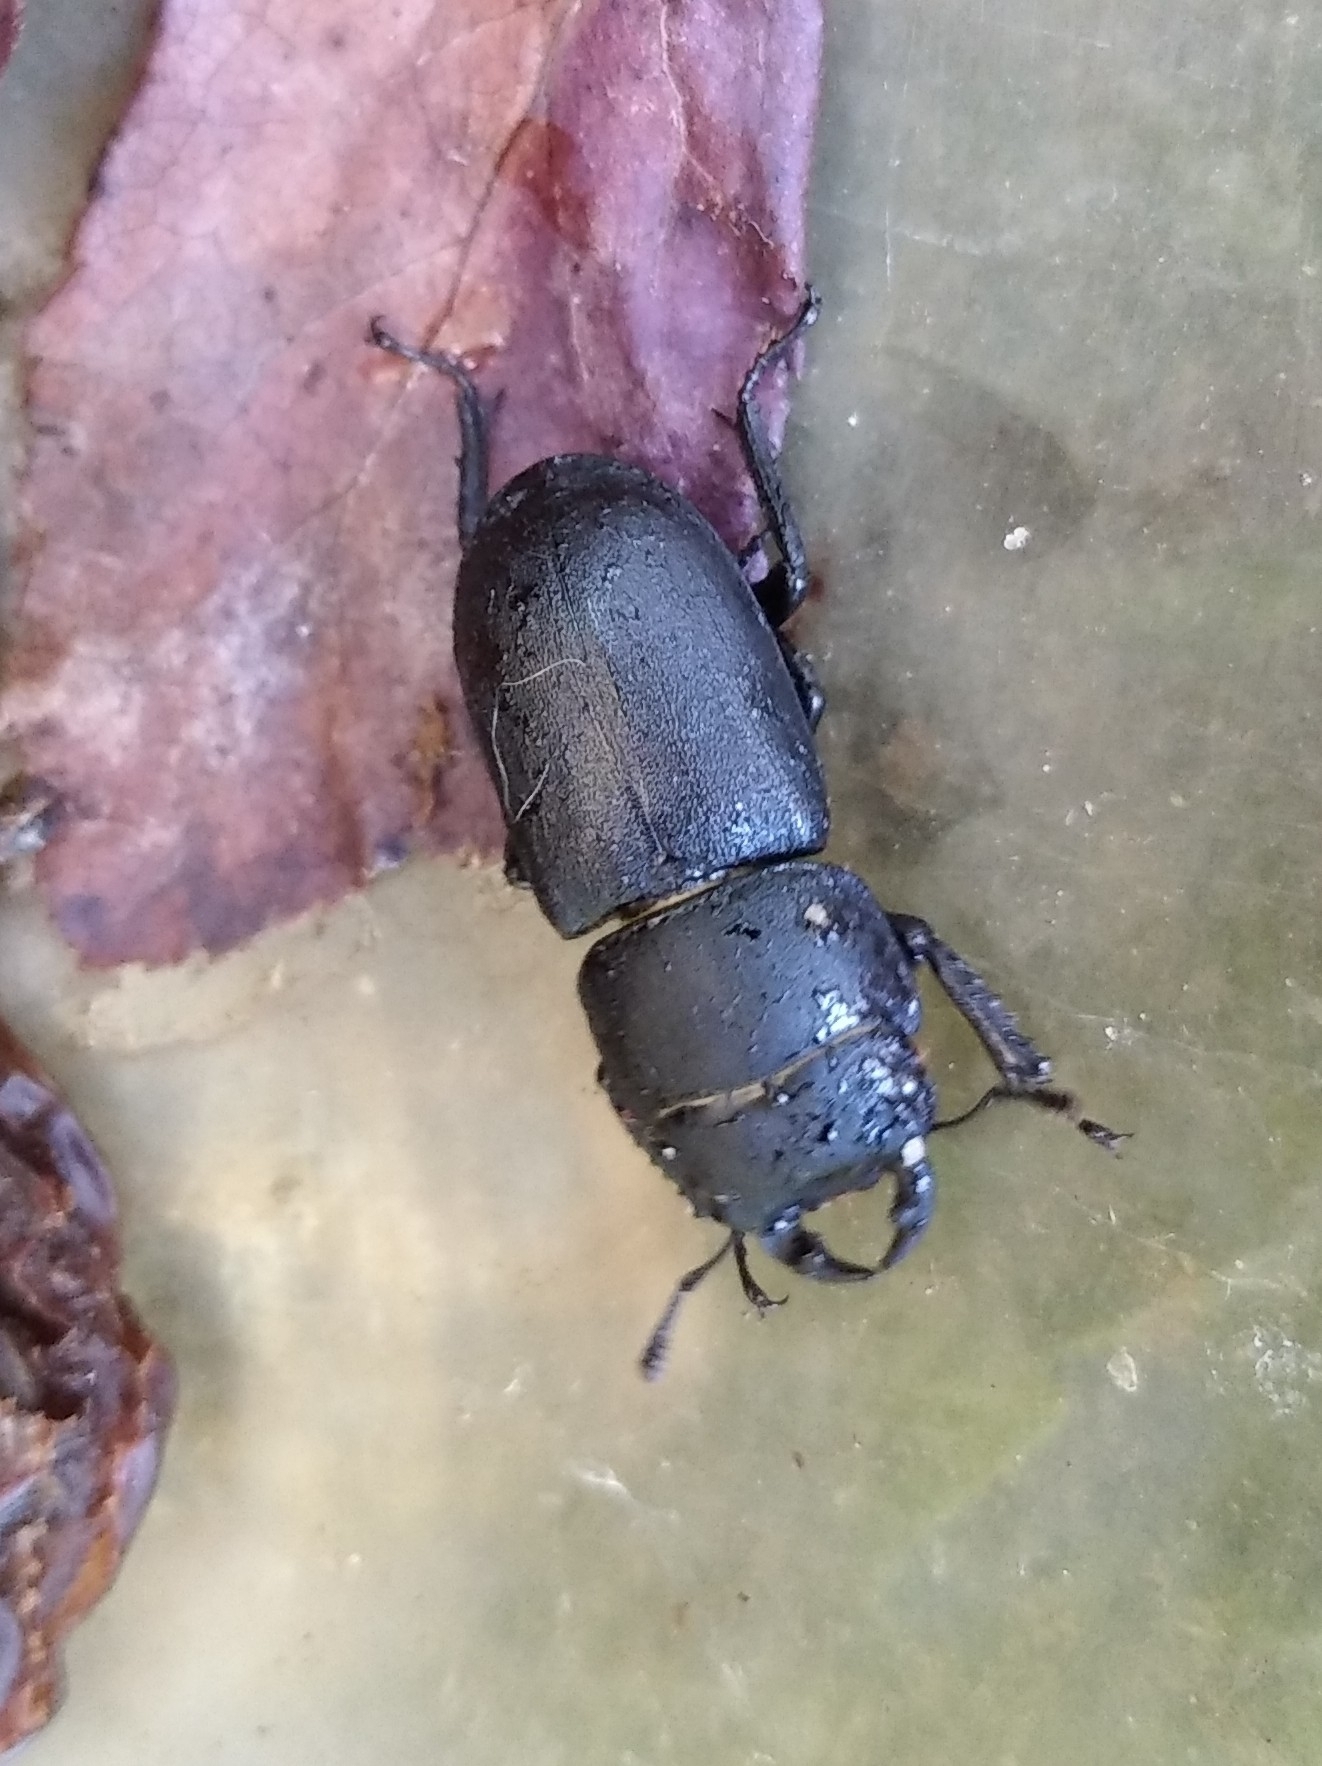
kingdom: Animalia
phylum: Arthropoda
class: Insecta
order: Coleoptera
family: Lucanidae
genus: Dorcus
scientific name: Dorcus parallelipipedus
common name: Lesser stag beetle
